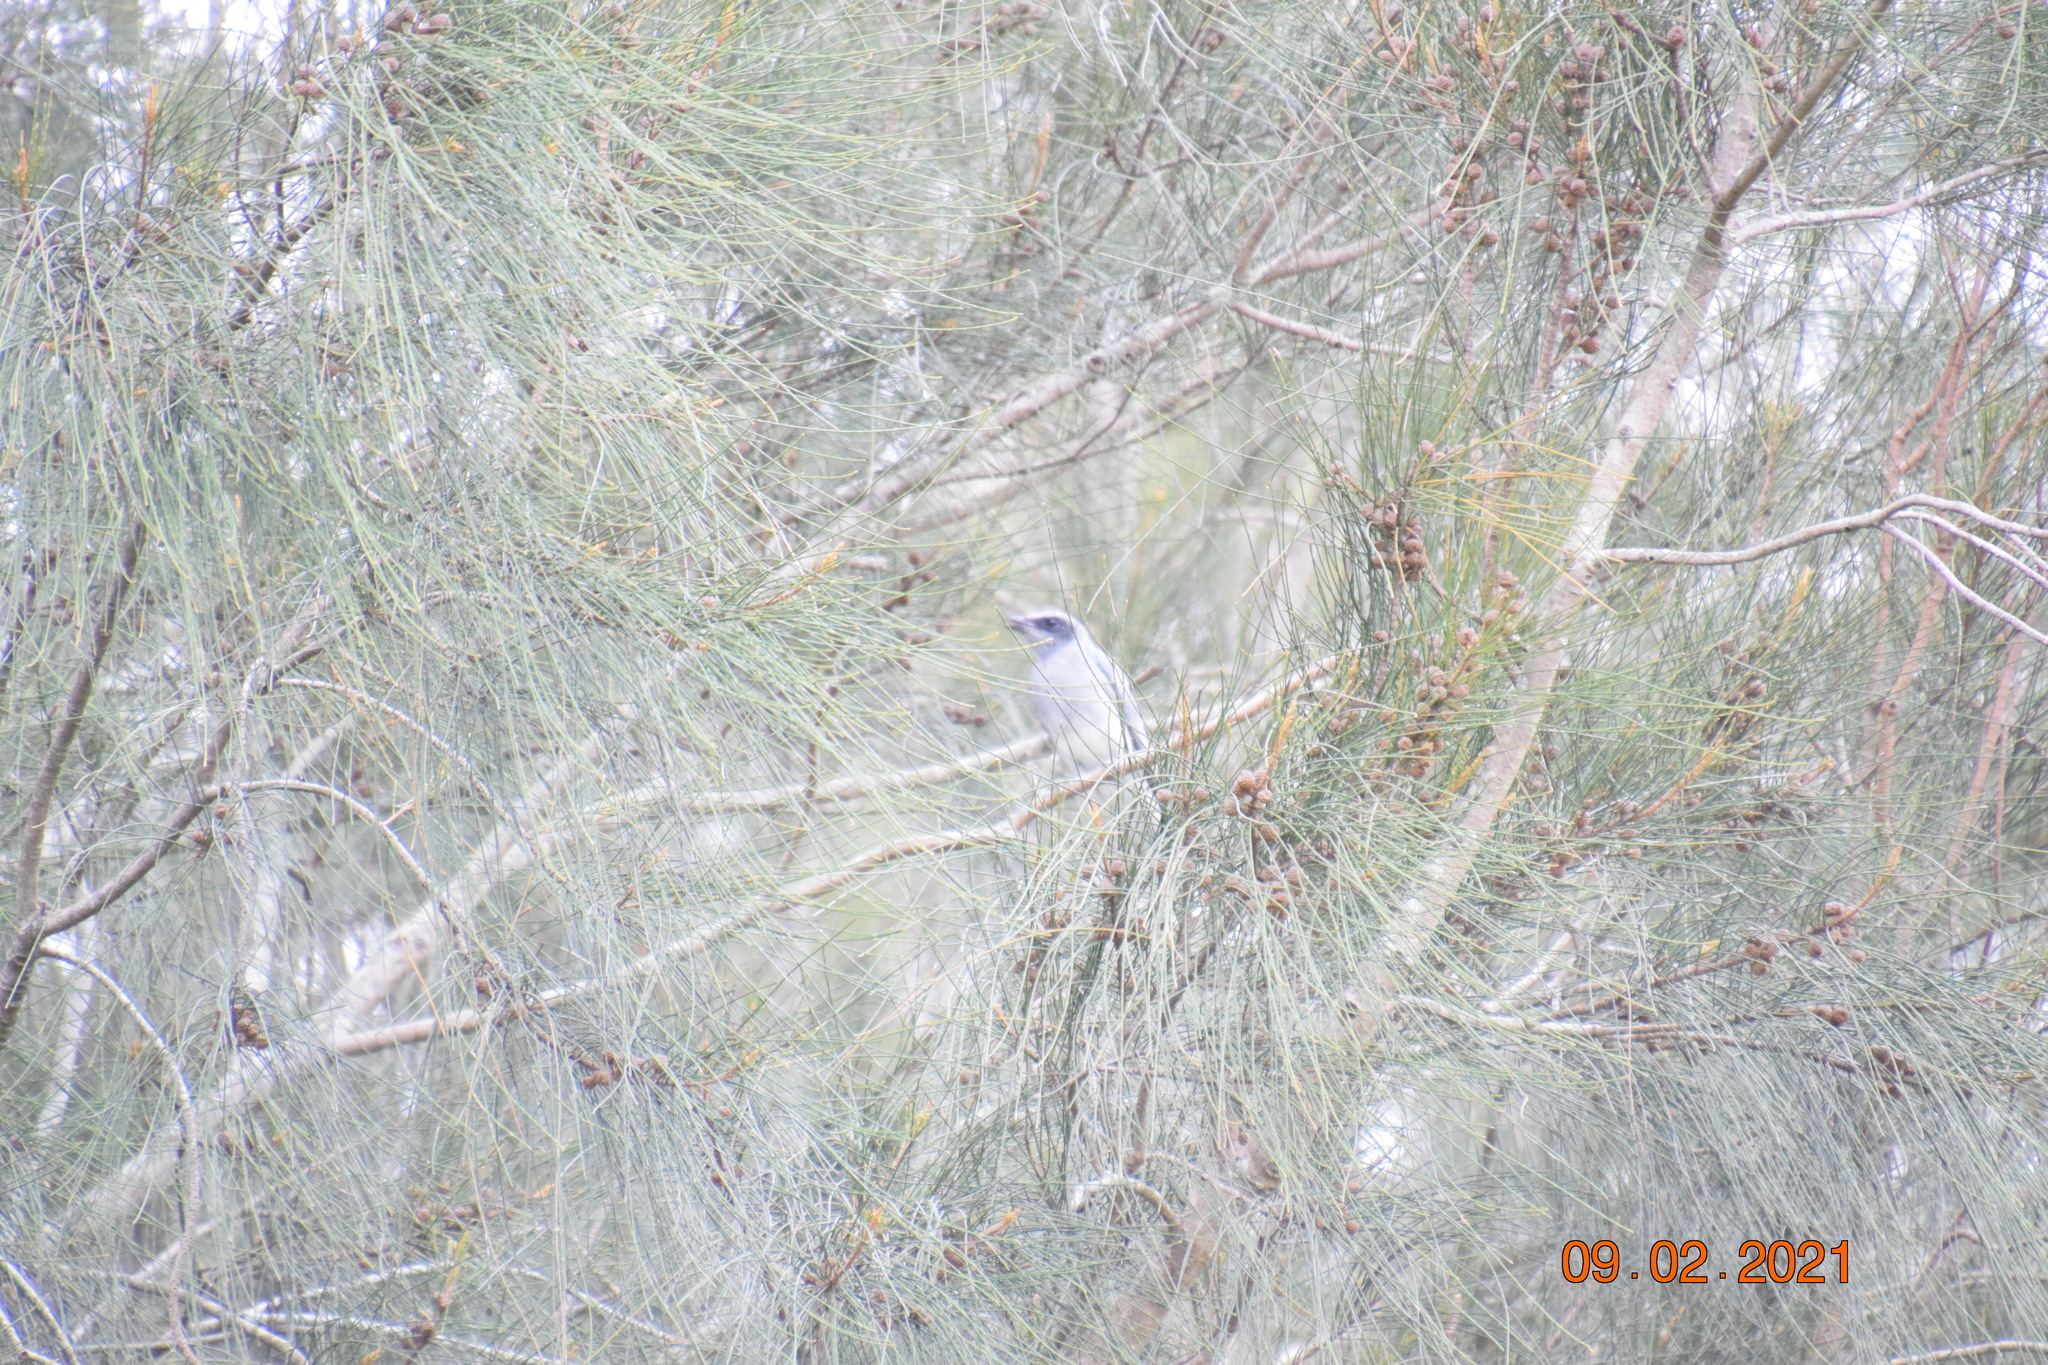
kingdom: Animalia
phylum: Chordata
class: Aves
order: Passeriformes
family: Campephagidae
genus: Coracina
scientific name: Coracina novaehollandiae
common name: Black-faced cuckooshrike
